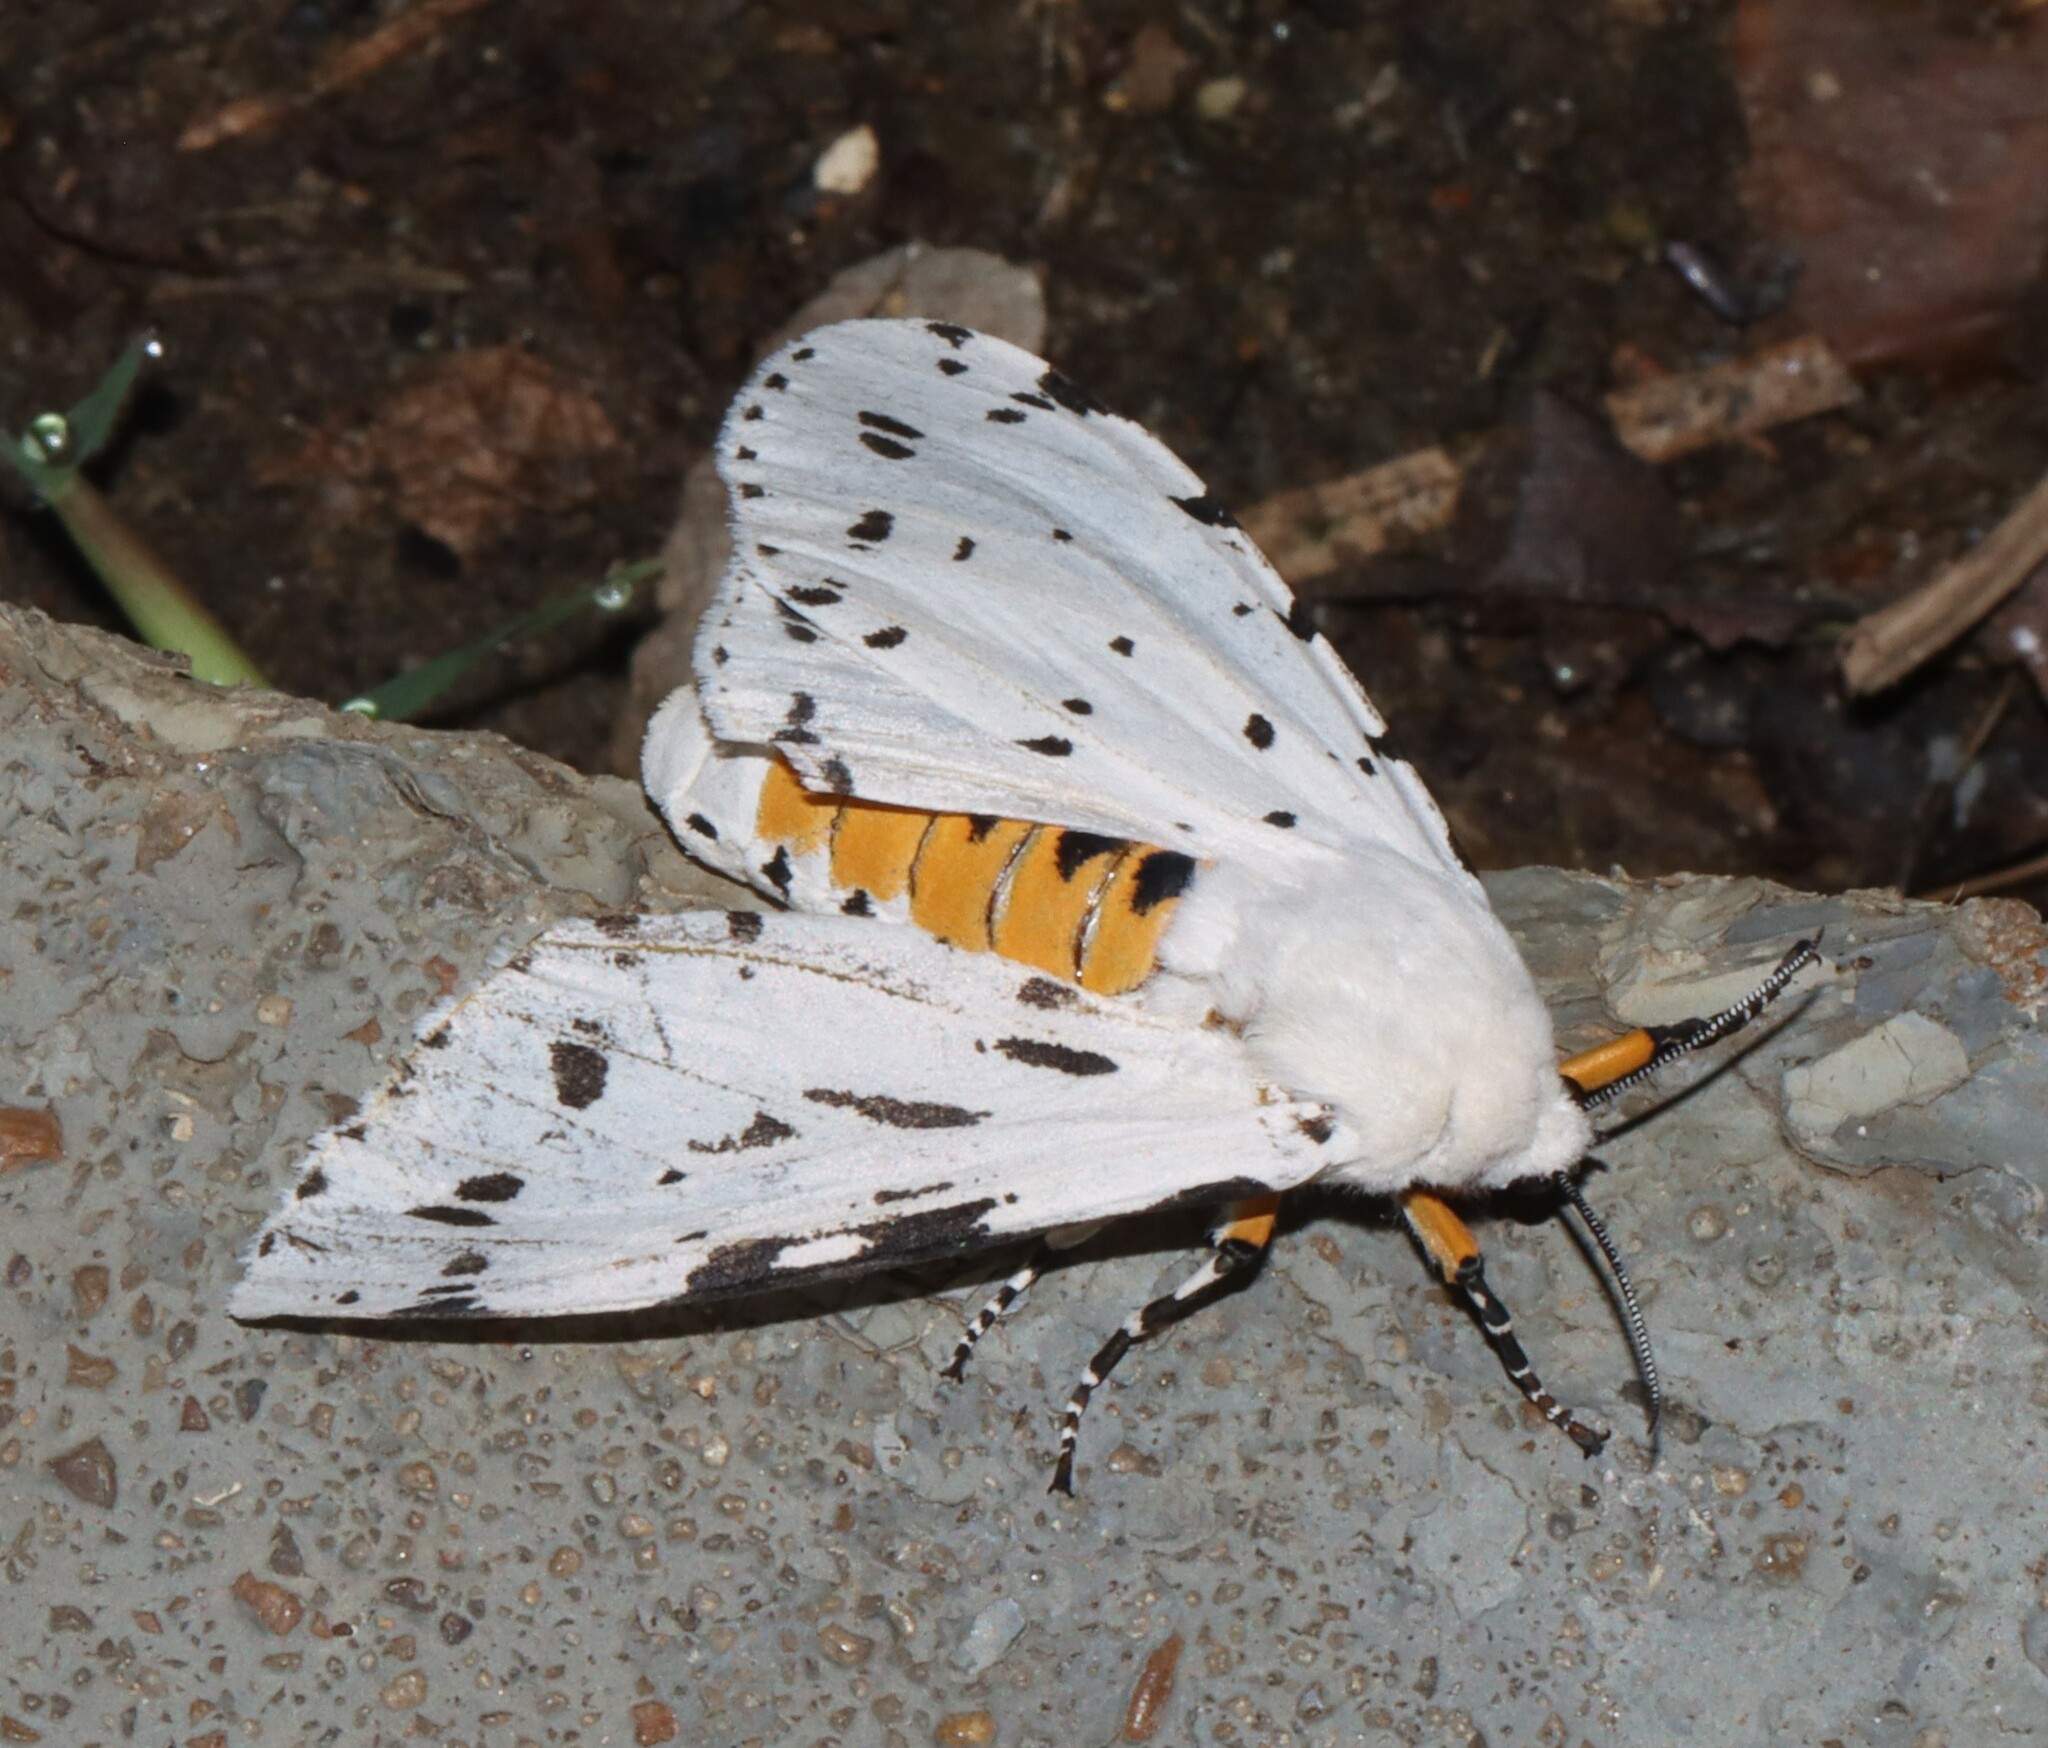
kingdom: Animalia
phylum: Arthropoda
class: Insecta
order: Lepidoptera
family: Erebidae
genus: Estigmene
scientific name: Estigmene acrea
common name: Salt marsh moth
